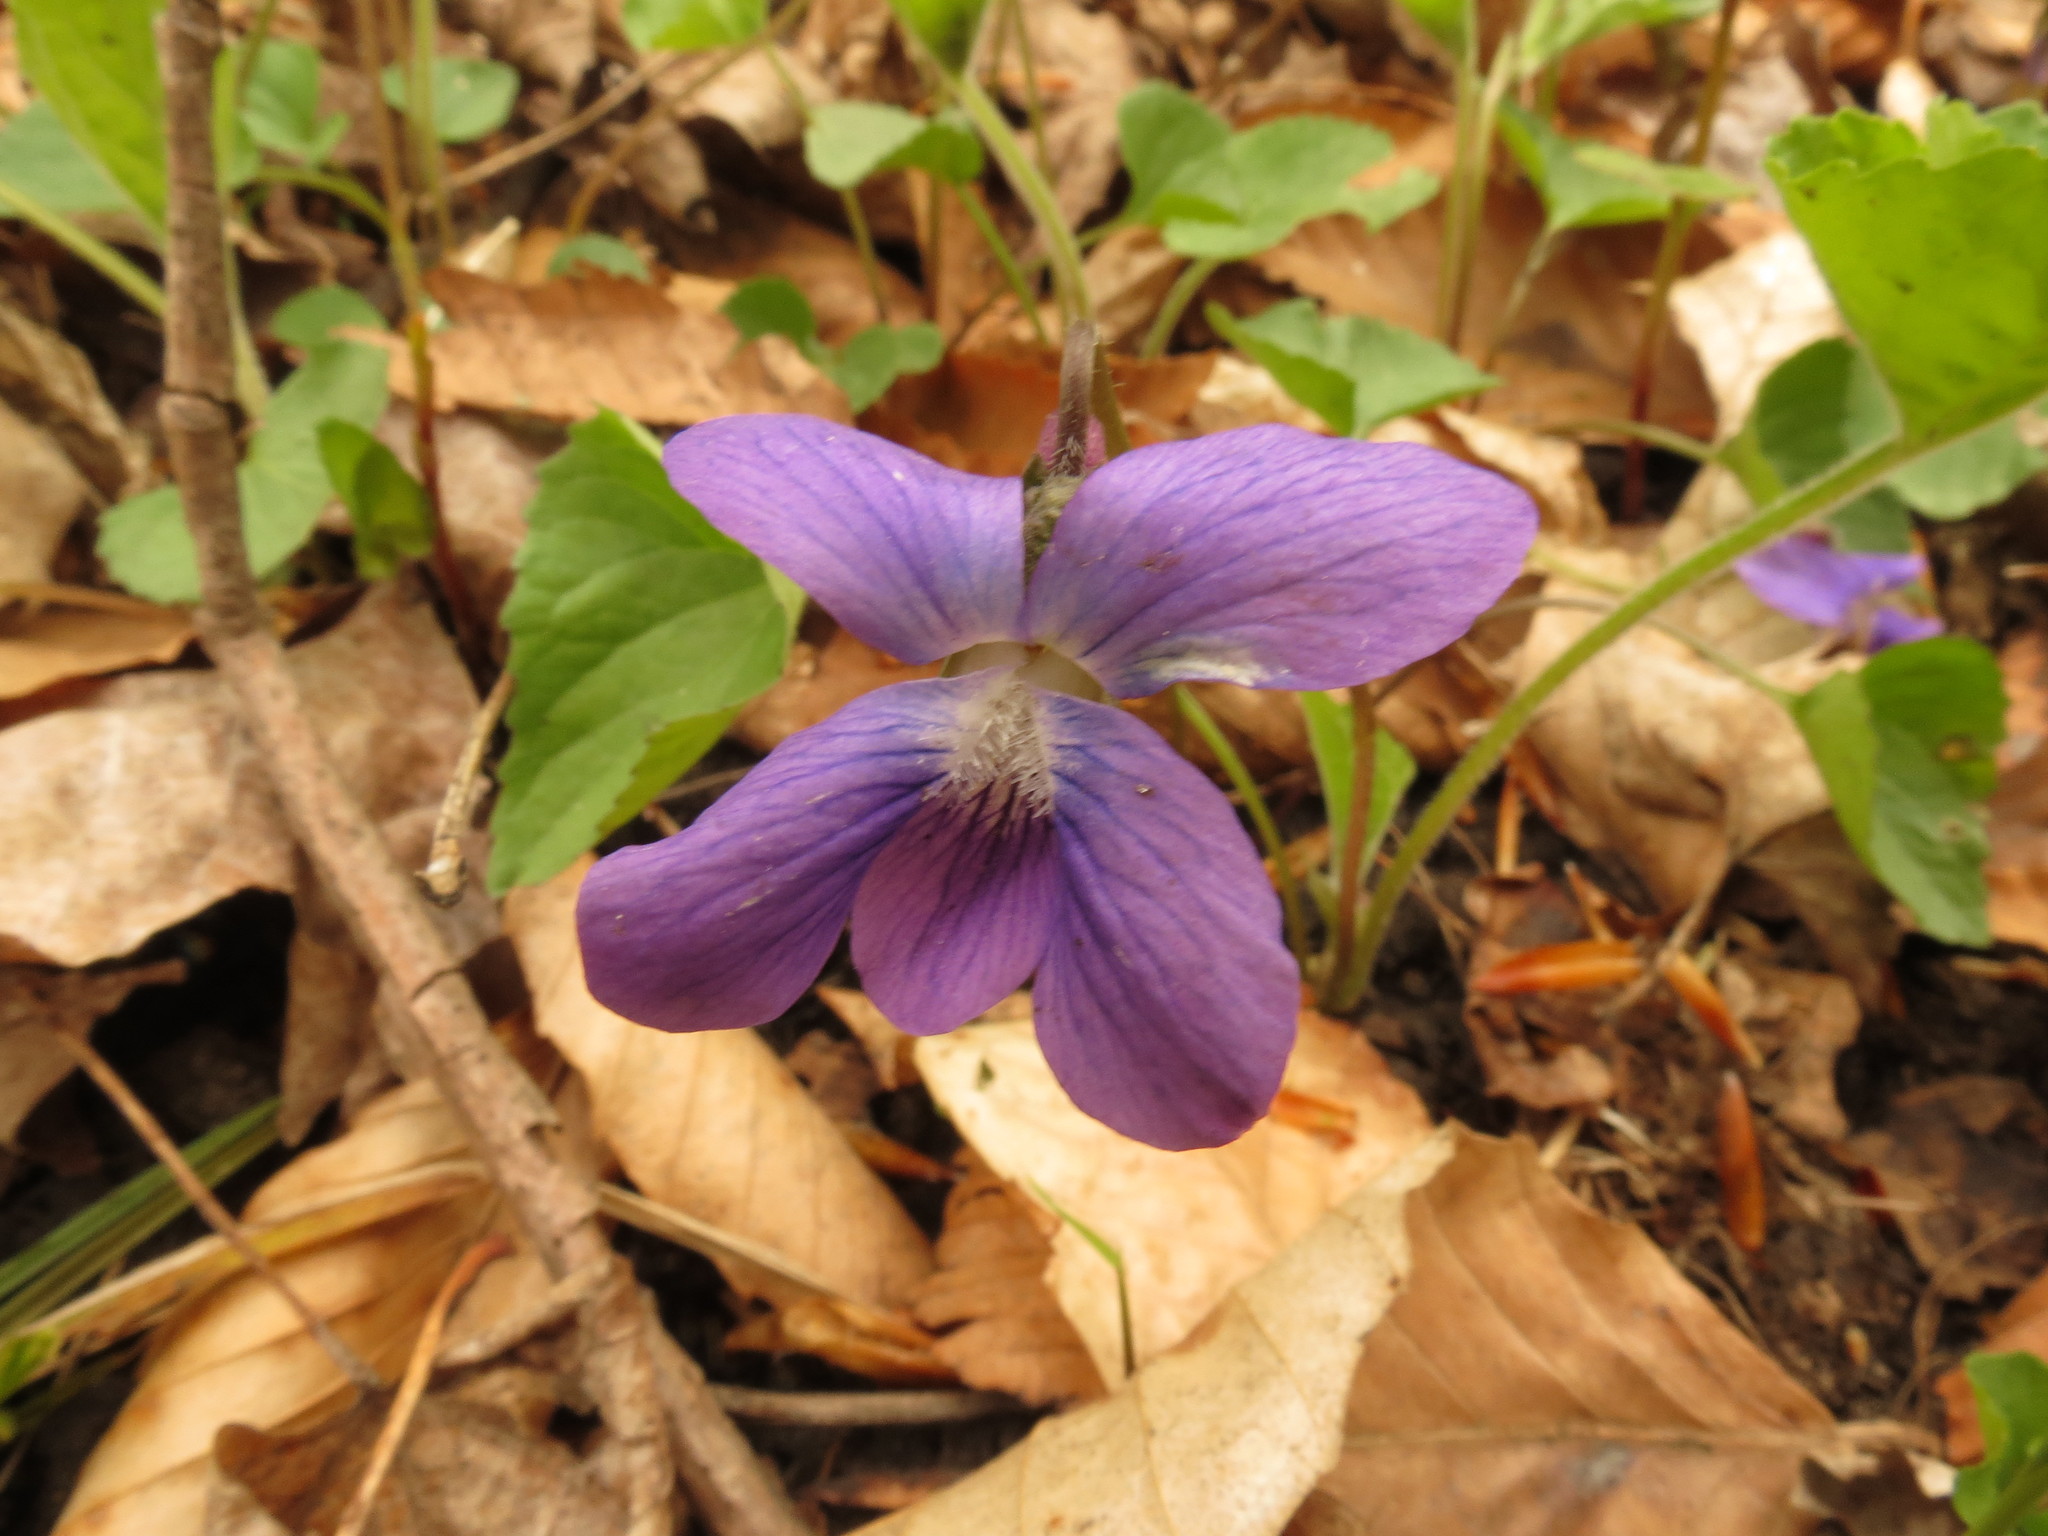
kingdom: Plantae
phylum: Tracheophyta
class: Magnoliopsida
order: Malpighiales
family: Violaceae
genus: Viola
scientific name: Viola sororia
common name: Dooryard violet
